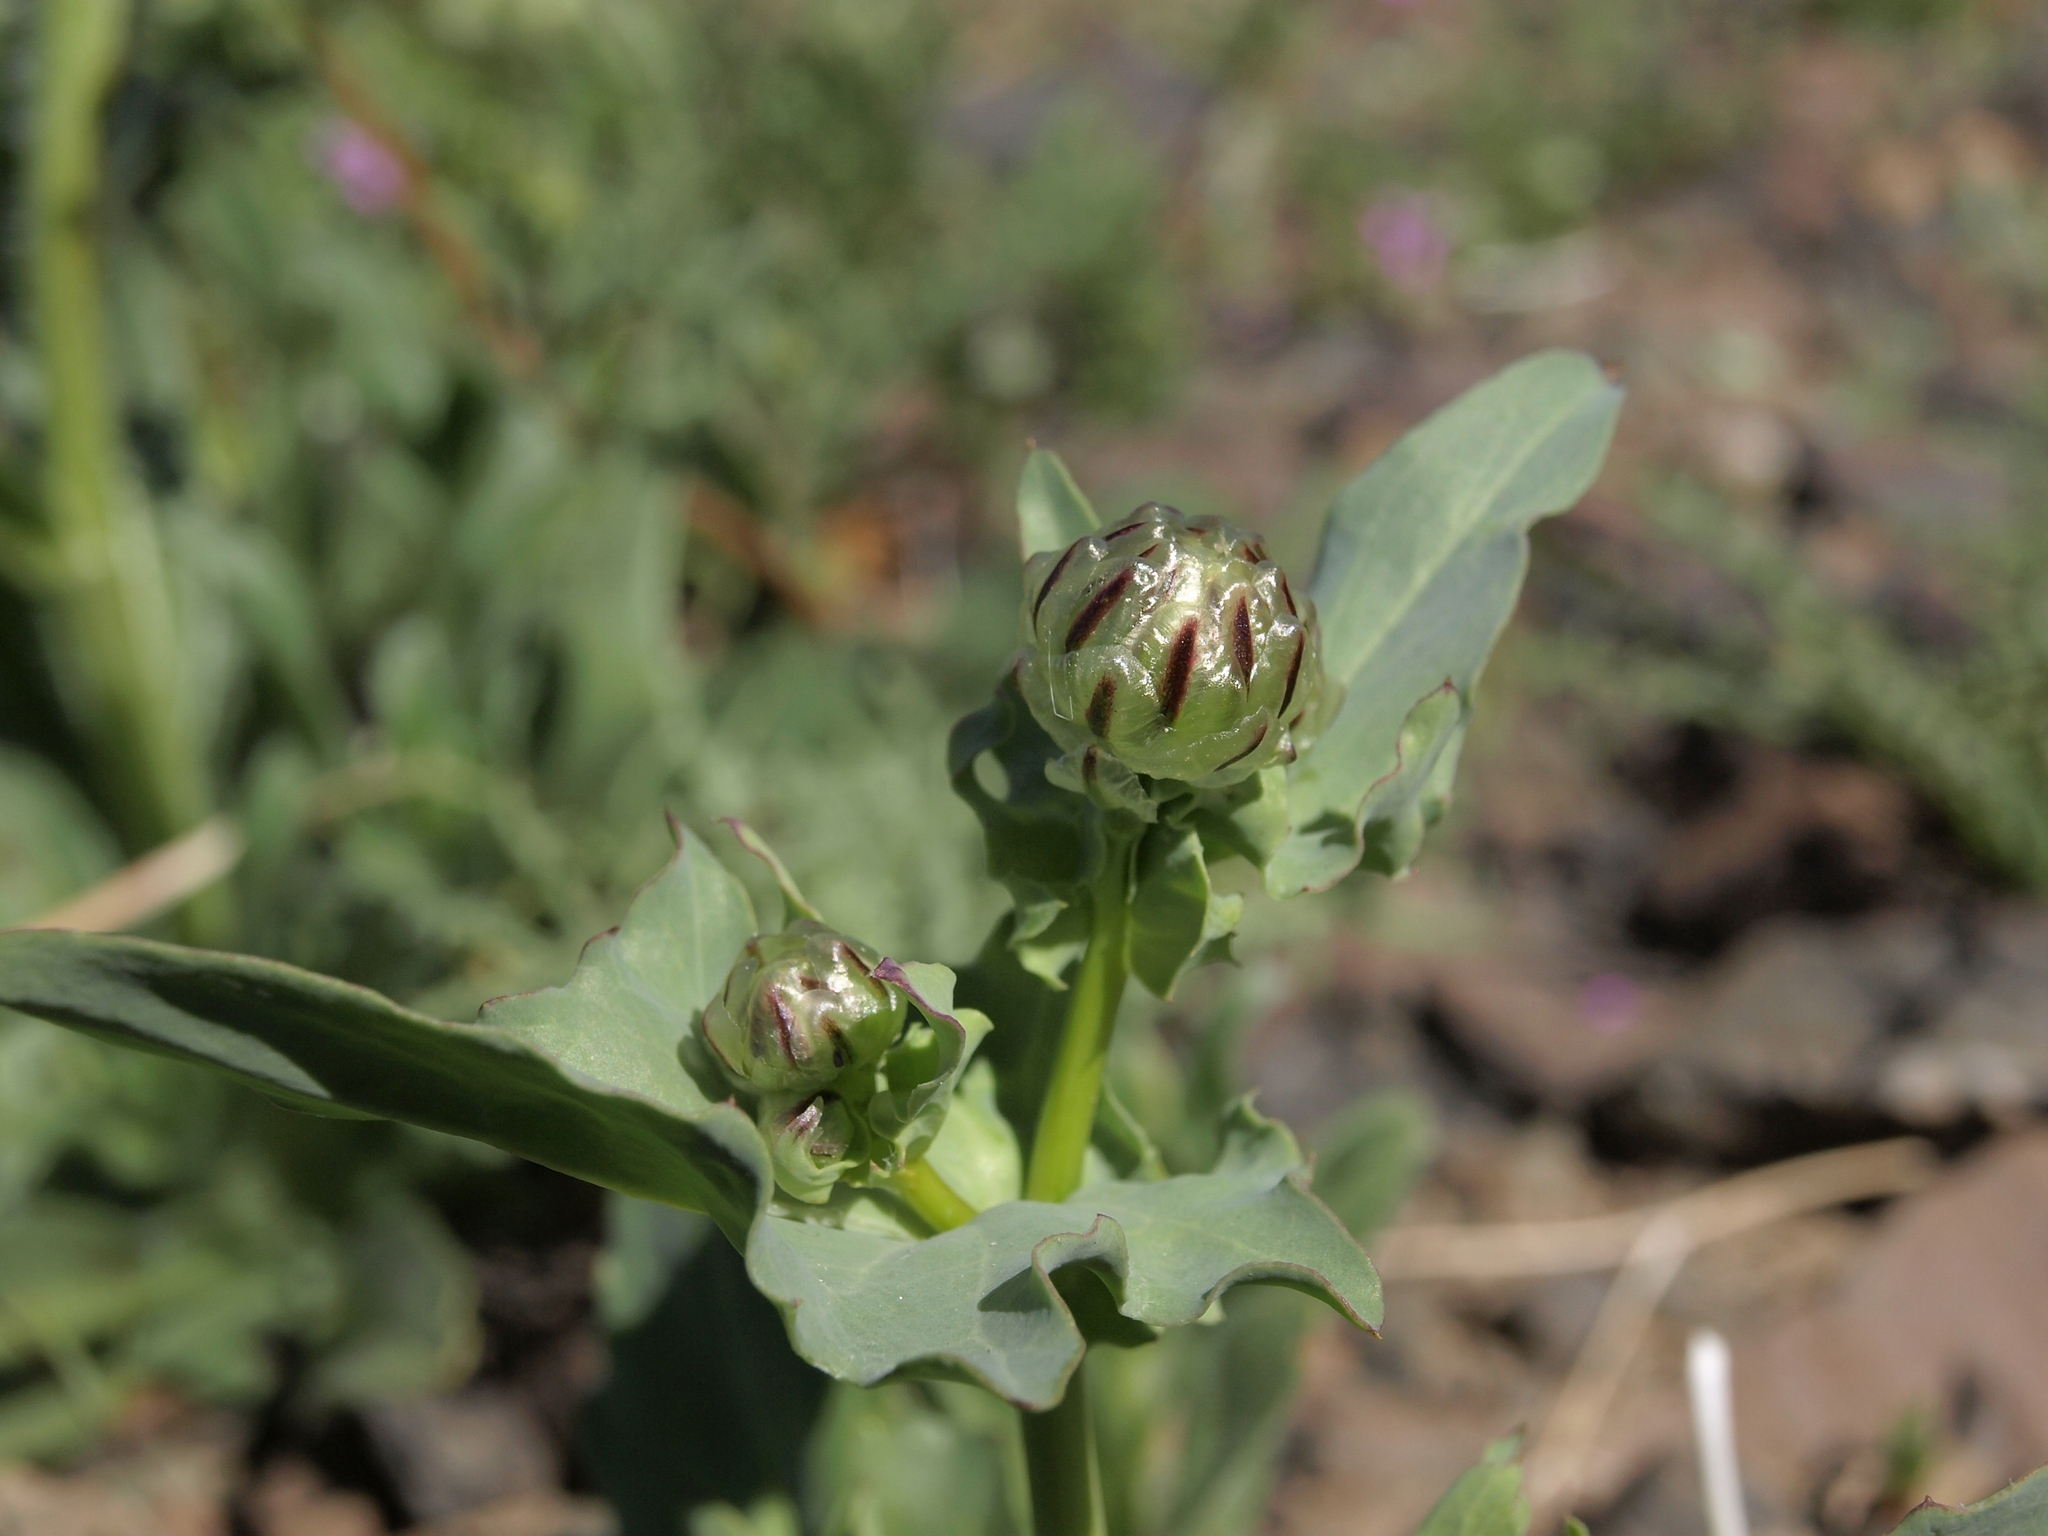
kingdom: Plantae
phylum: Tracheophyta
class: Magnoliopsida
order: Asterales
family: Asteraceae
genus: Malacothrix
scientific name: Malacothrix coulteri
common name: Snake's-head
